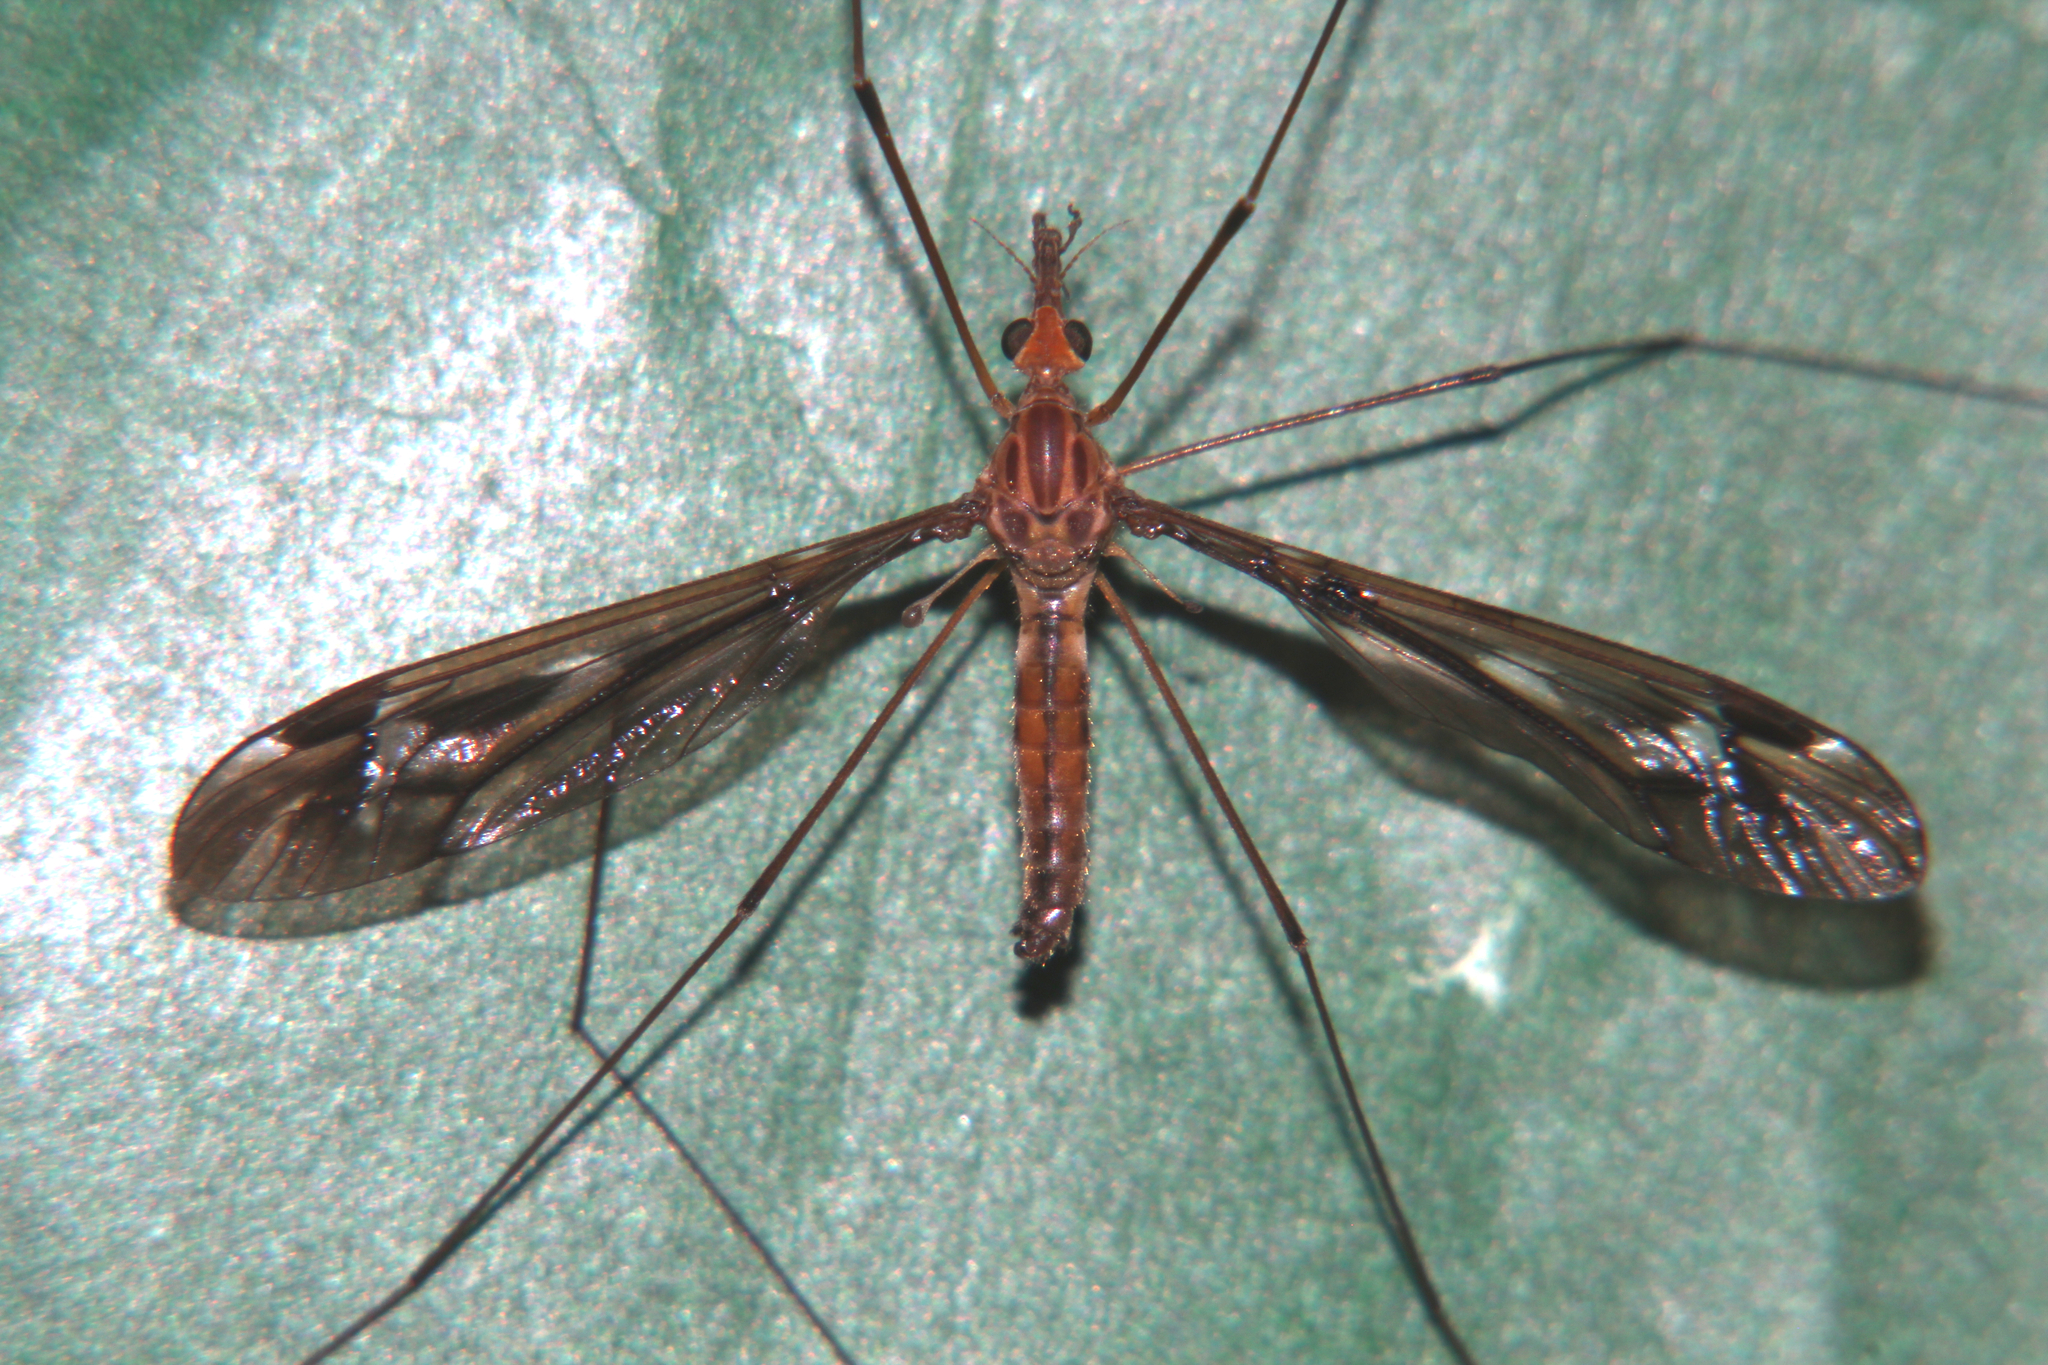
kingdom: Animalia
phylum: Arthropoda
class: Insecta
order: Diptera
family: Tipulidae
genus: Leptotarsus
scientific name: Leptotarsus huttoni
